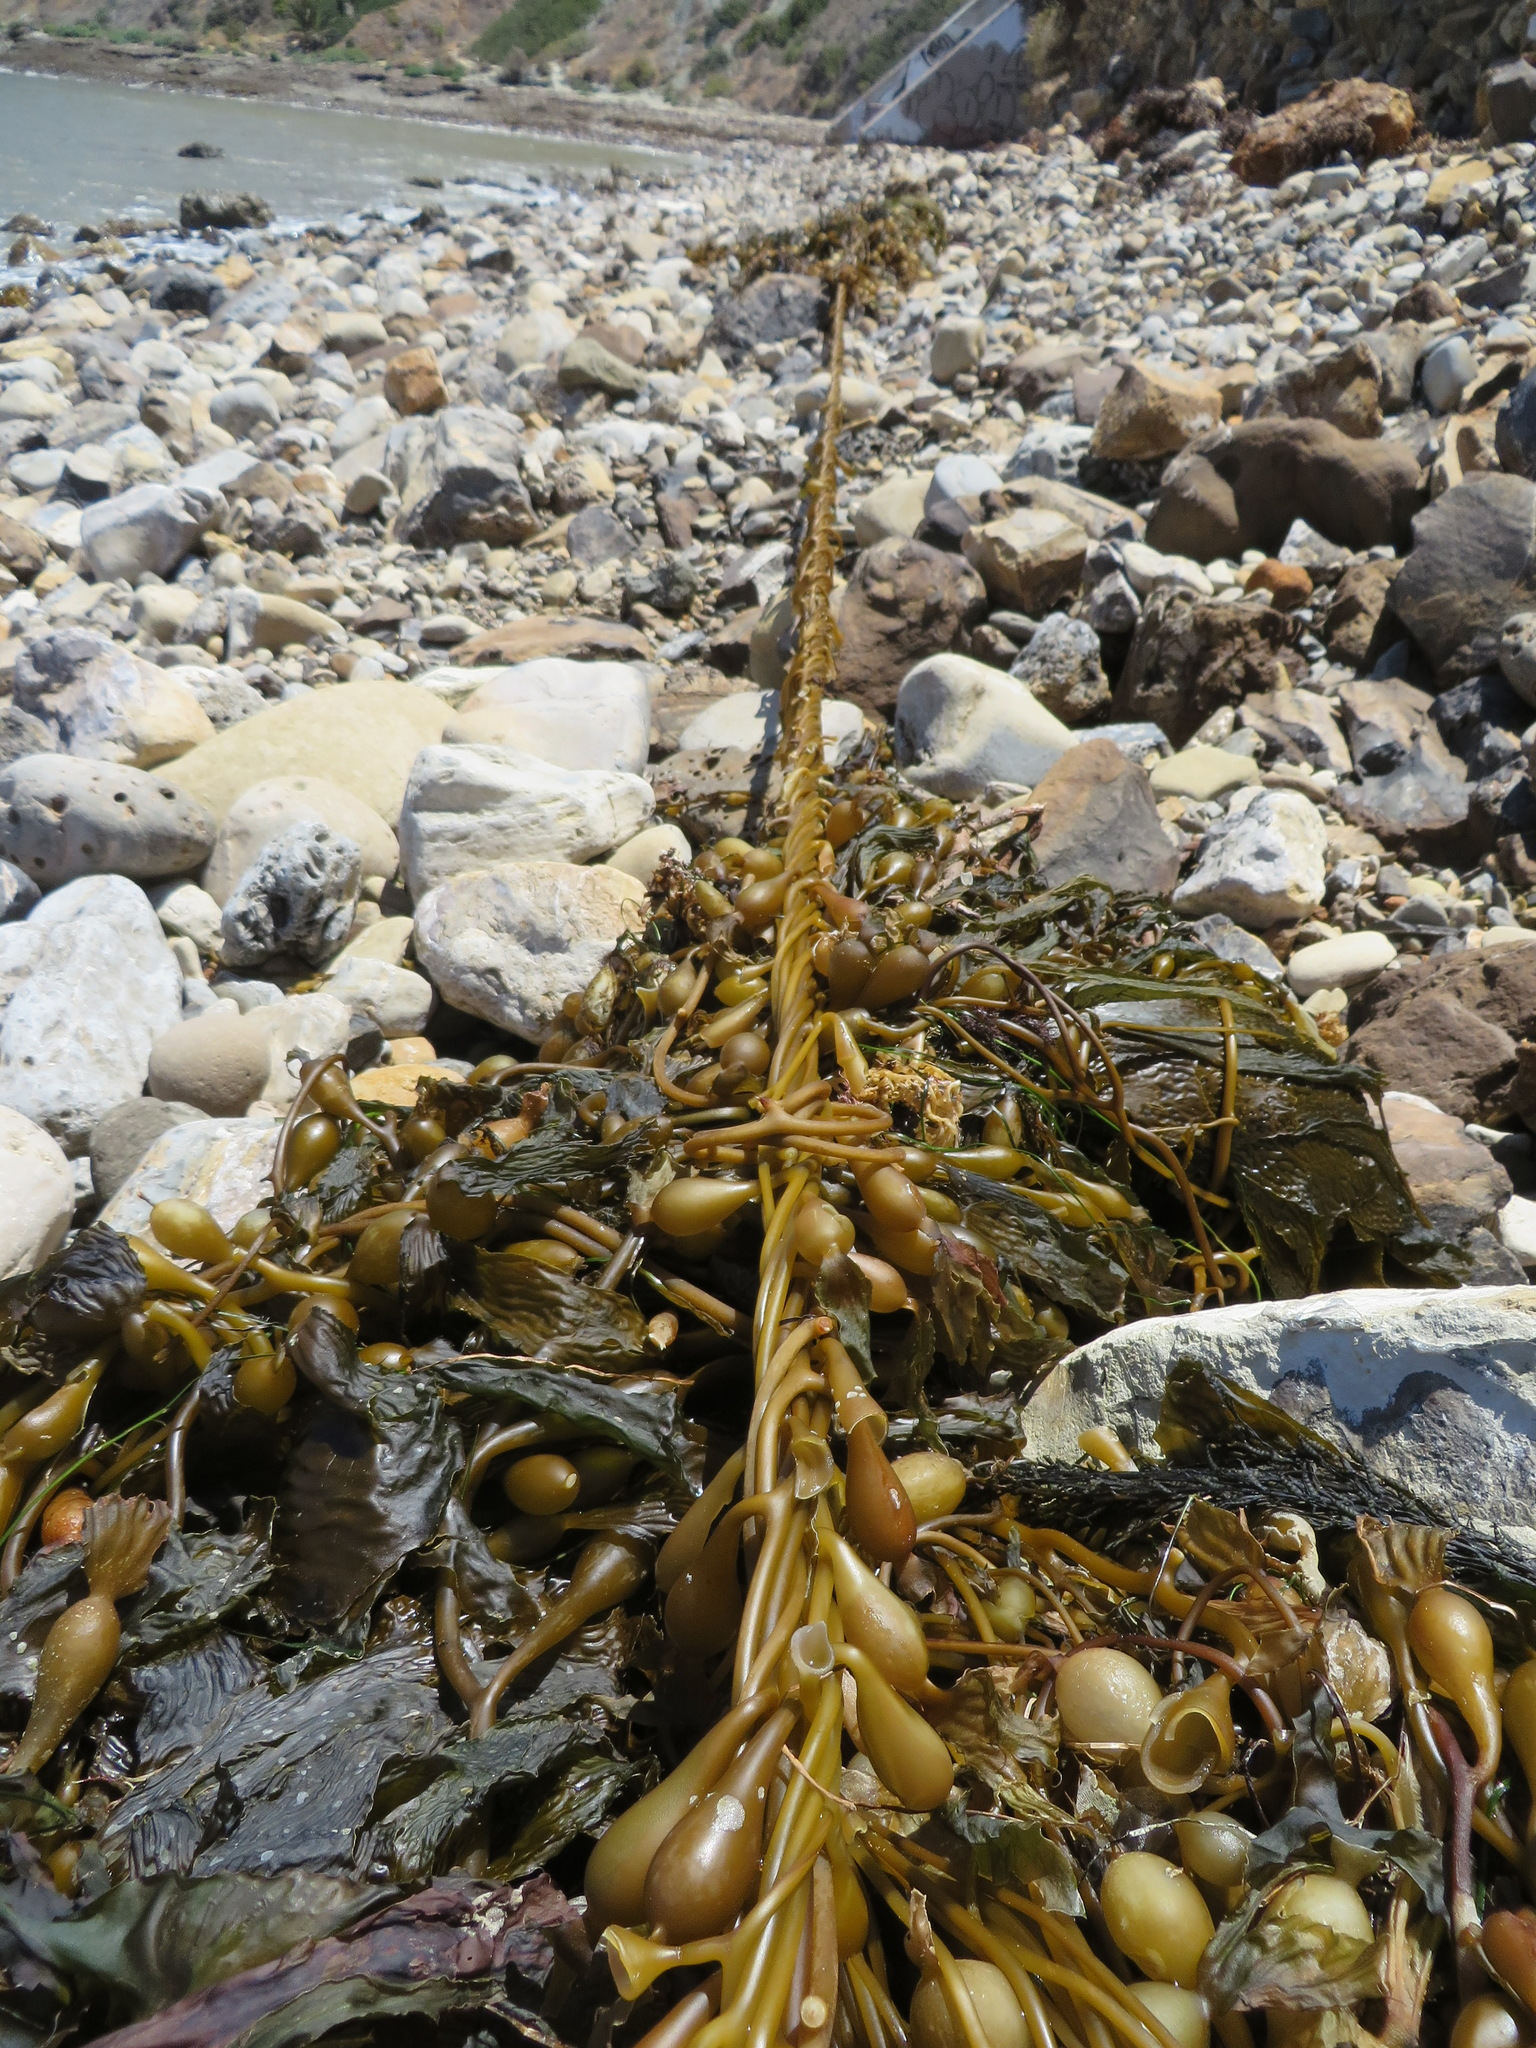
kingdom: Chromista
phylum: Ochrophyta
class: Phaeophyceae
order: Laminariales
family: Laminariaceae
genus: Macrocystis
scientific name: Macrocystis pyrifera
